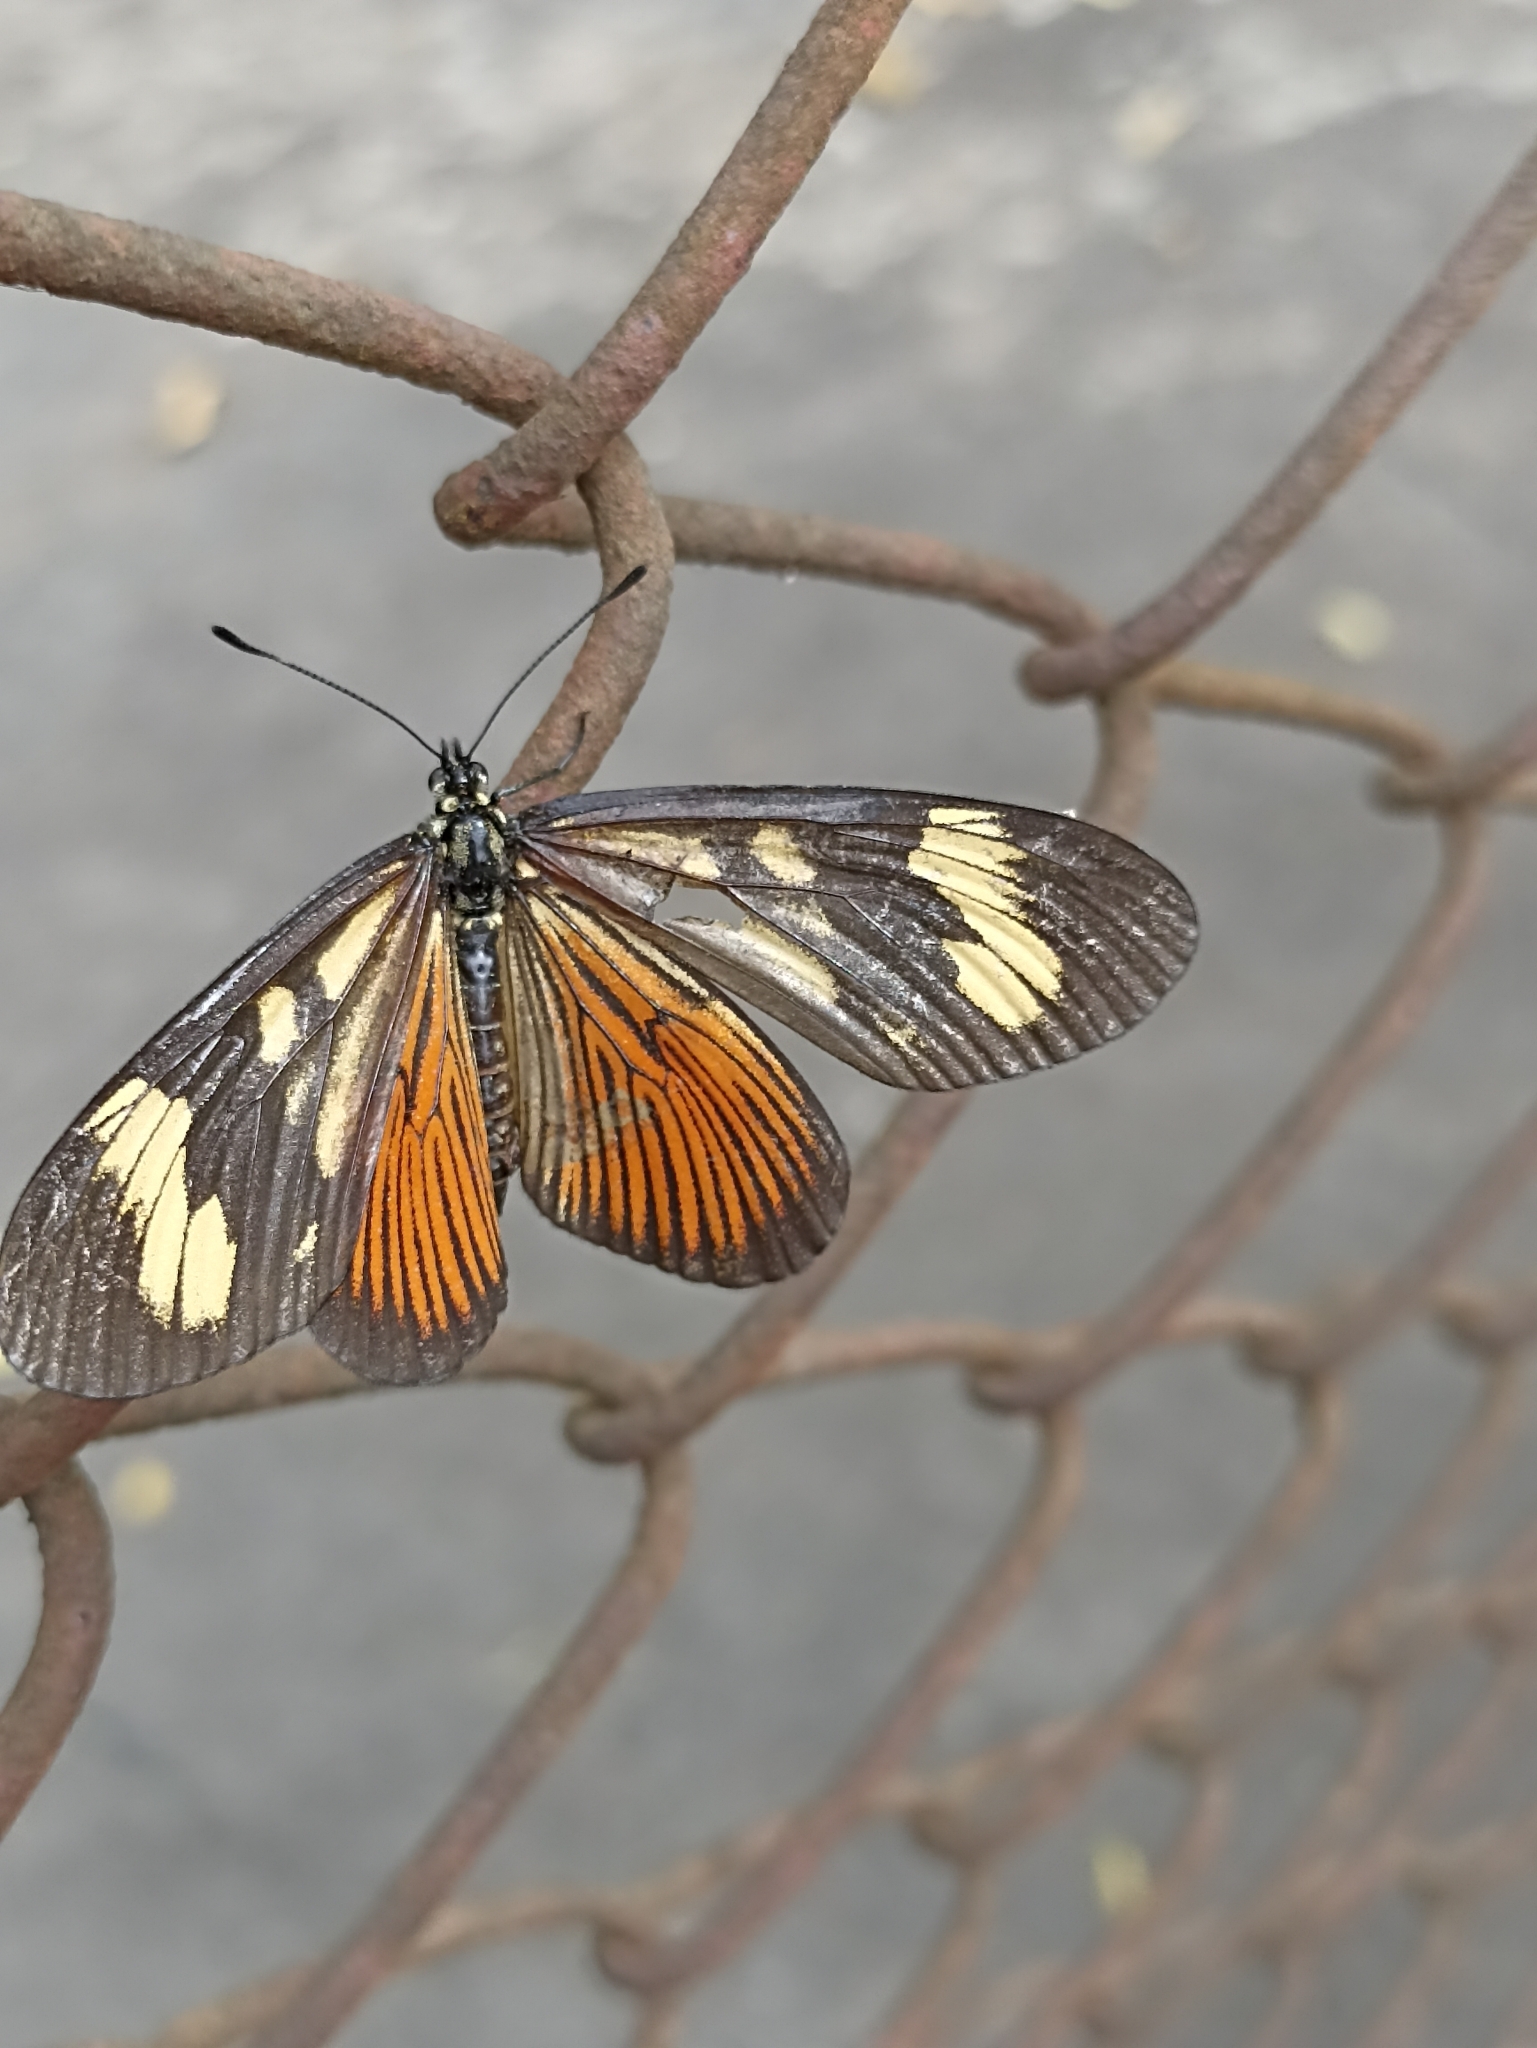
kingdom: Animalia
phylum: Arthropoda
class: Insecta
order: Lepidoptera
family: Nymphalidae
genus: Actinote
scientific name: Actinote carycina
